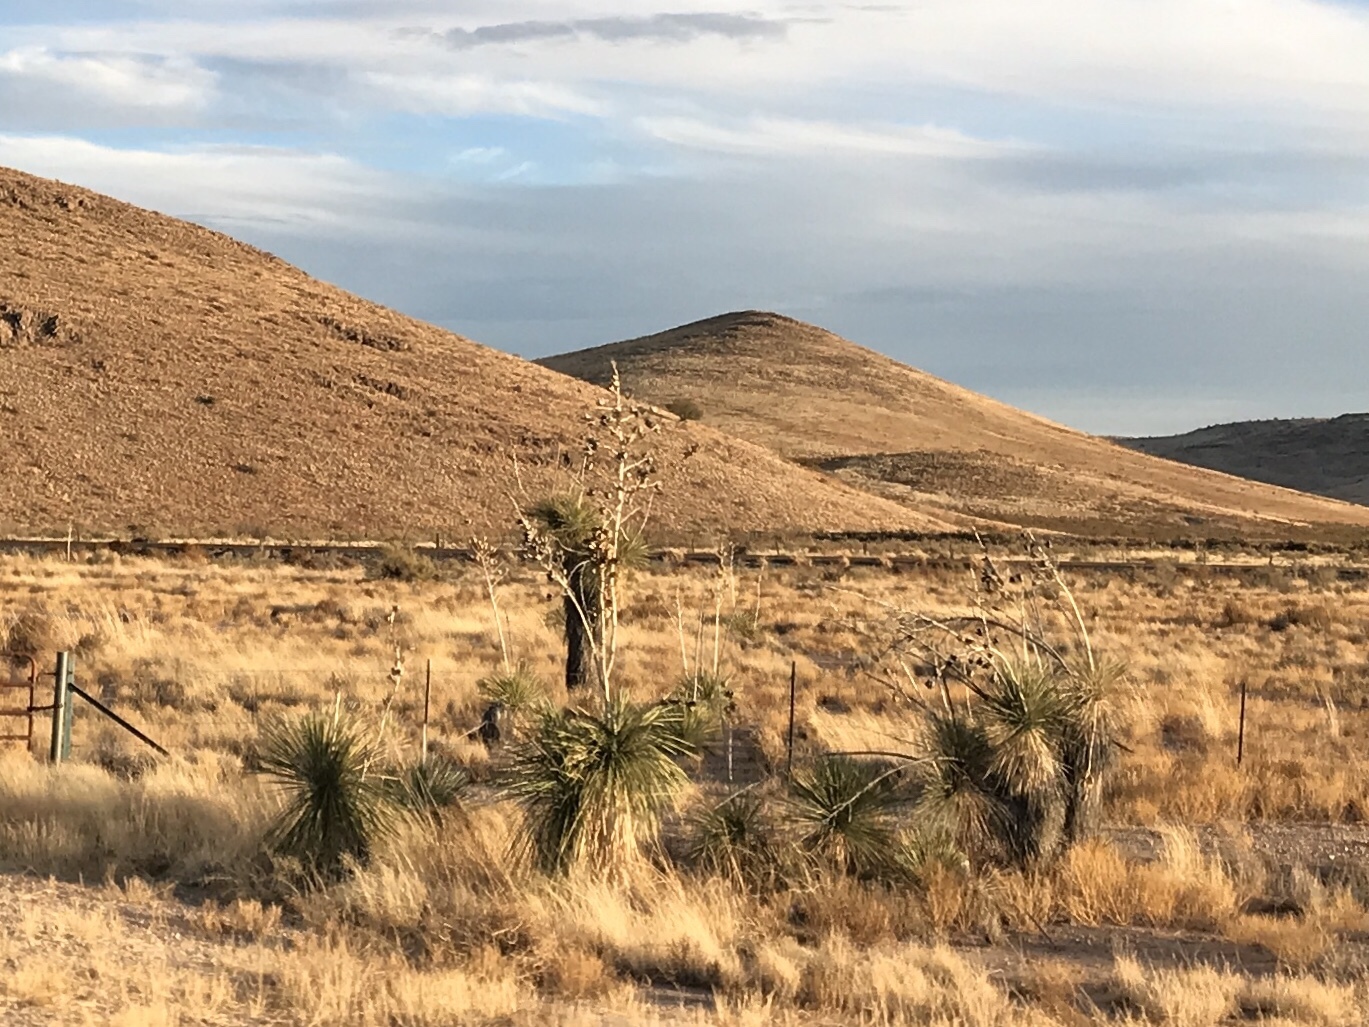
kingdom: Plantae
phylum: Tracheophyta
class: Liliopsida
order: Asparagales
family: Asparagaceae
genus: Yucca
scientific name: Yucca elata
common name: Palmella
